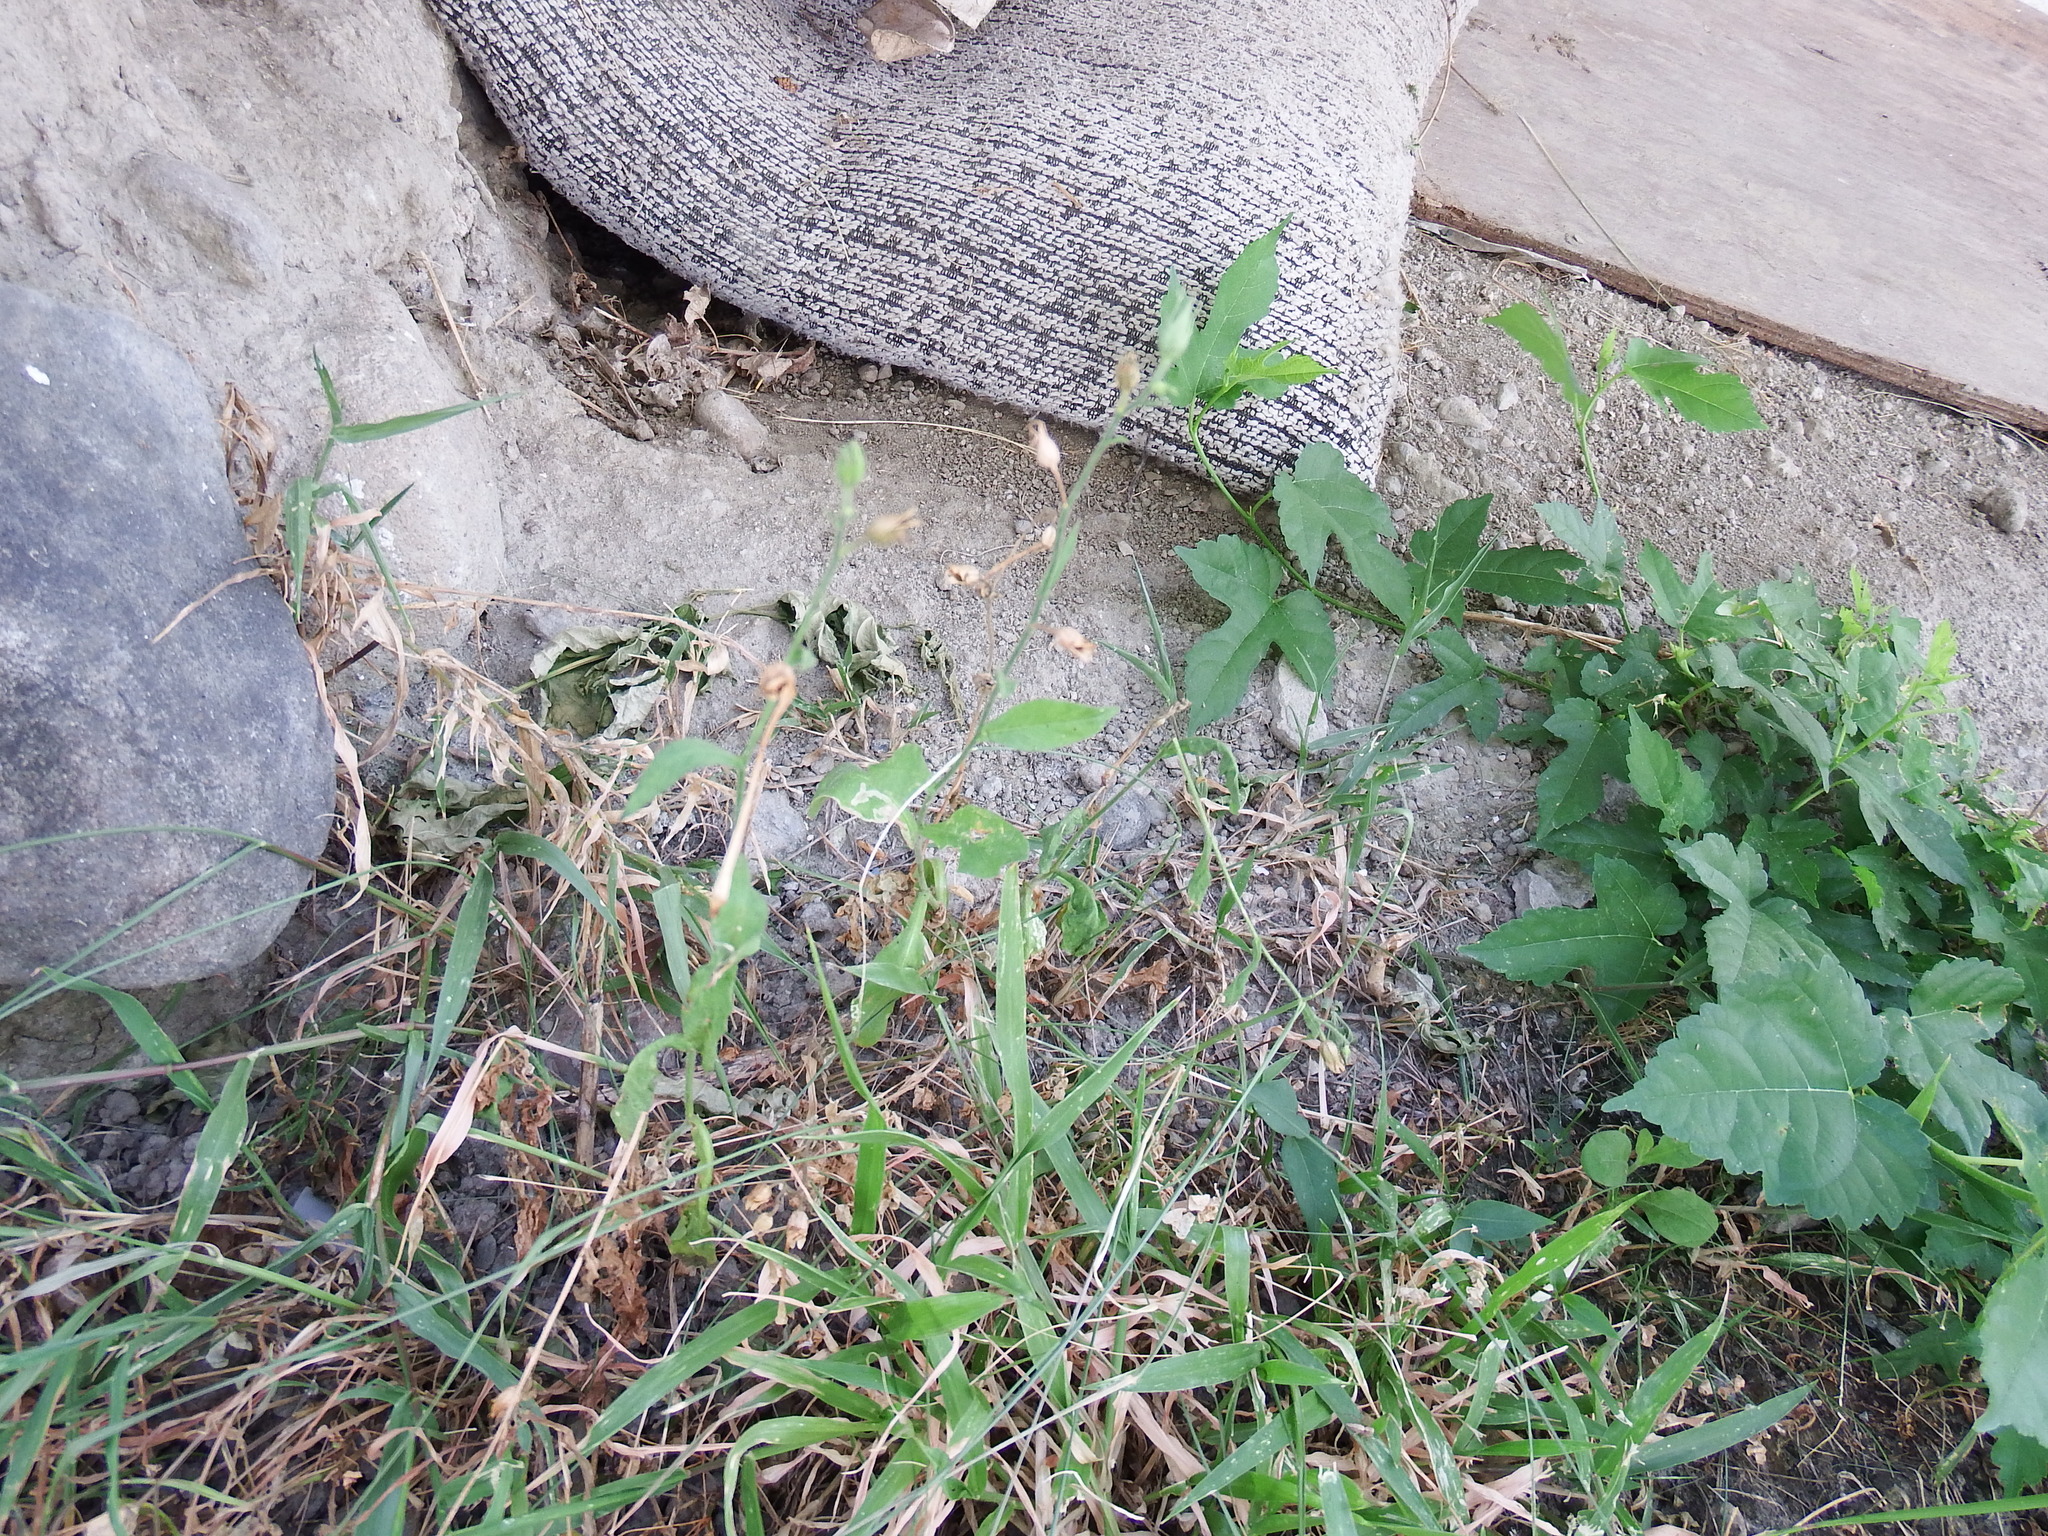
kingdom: Plantae
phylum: Tracheophyta
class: Magnoliopsida
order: Solanales
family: Solanaceae
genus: Nicotiana
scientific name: Nicotiana plumbaginifolia
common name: Tex-mex tobacco
